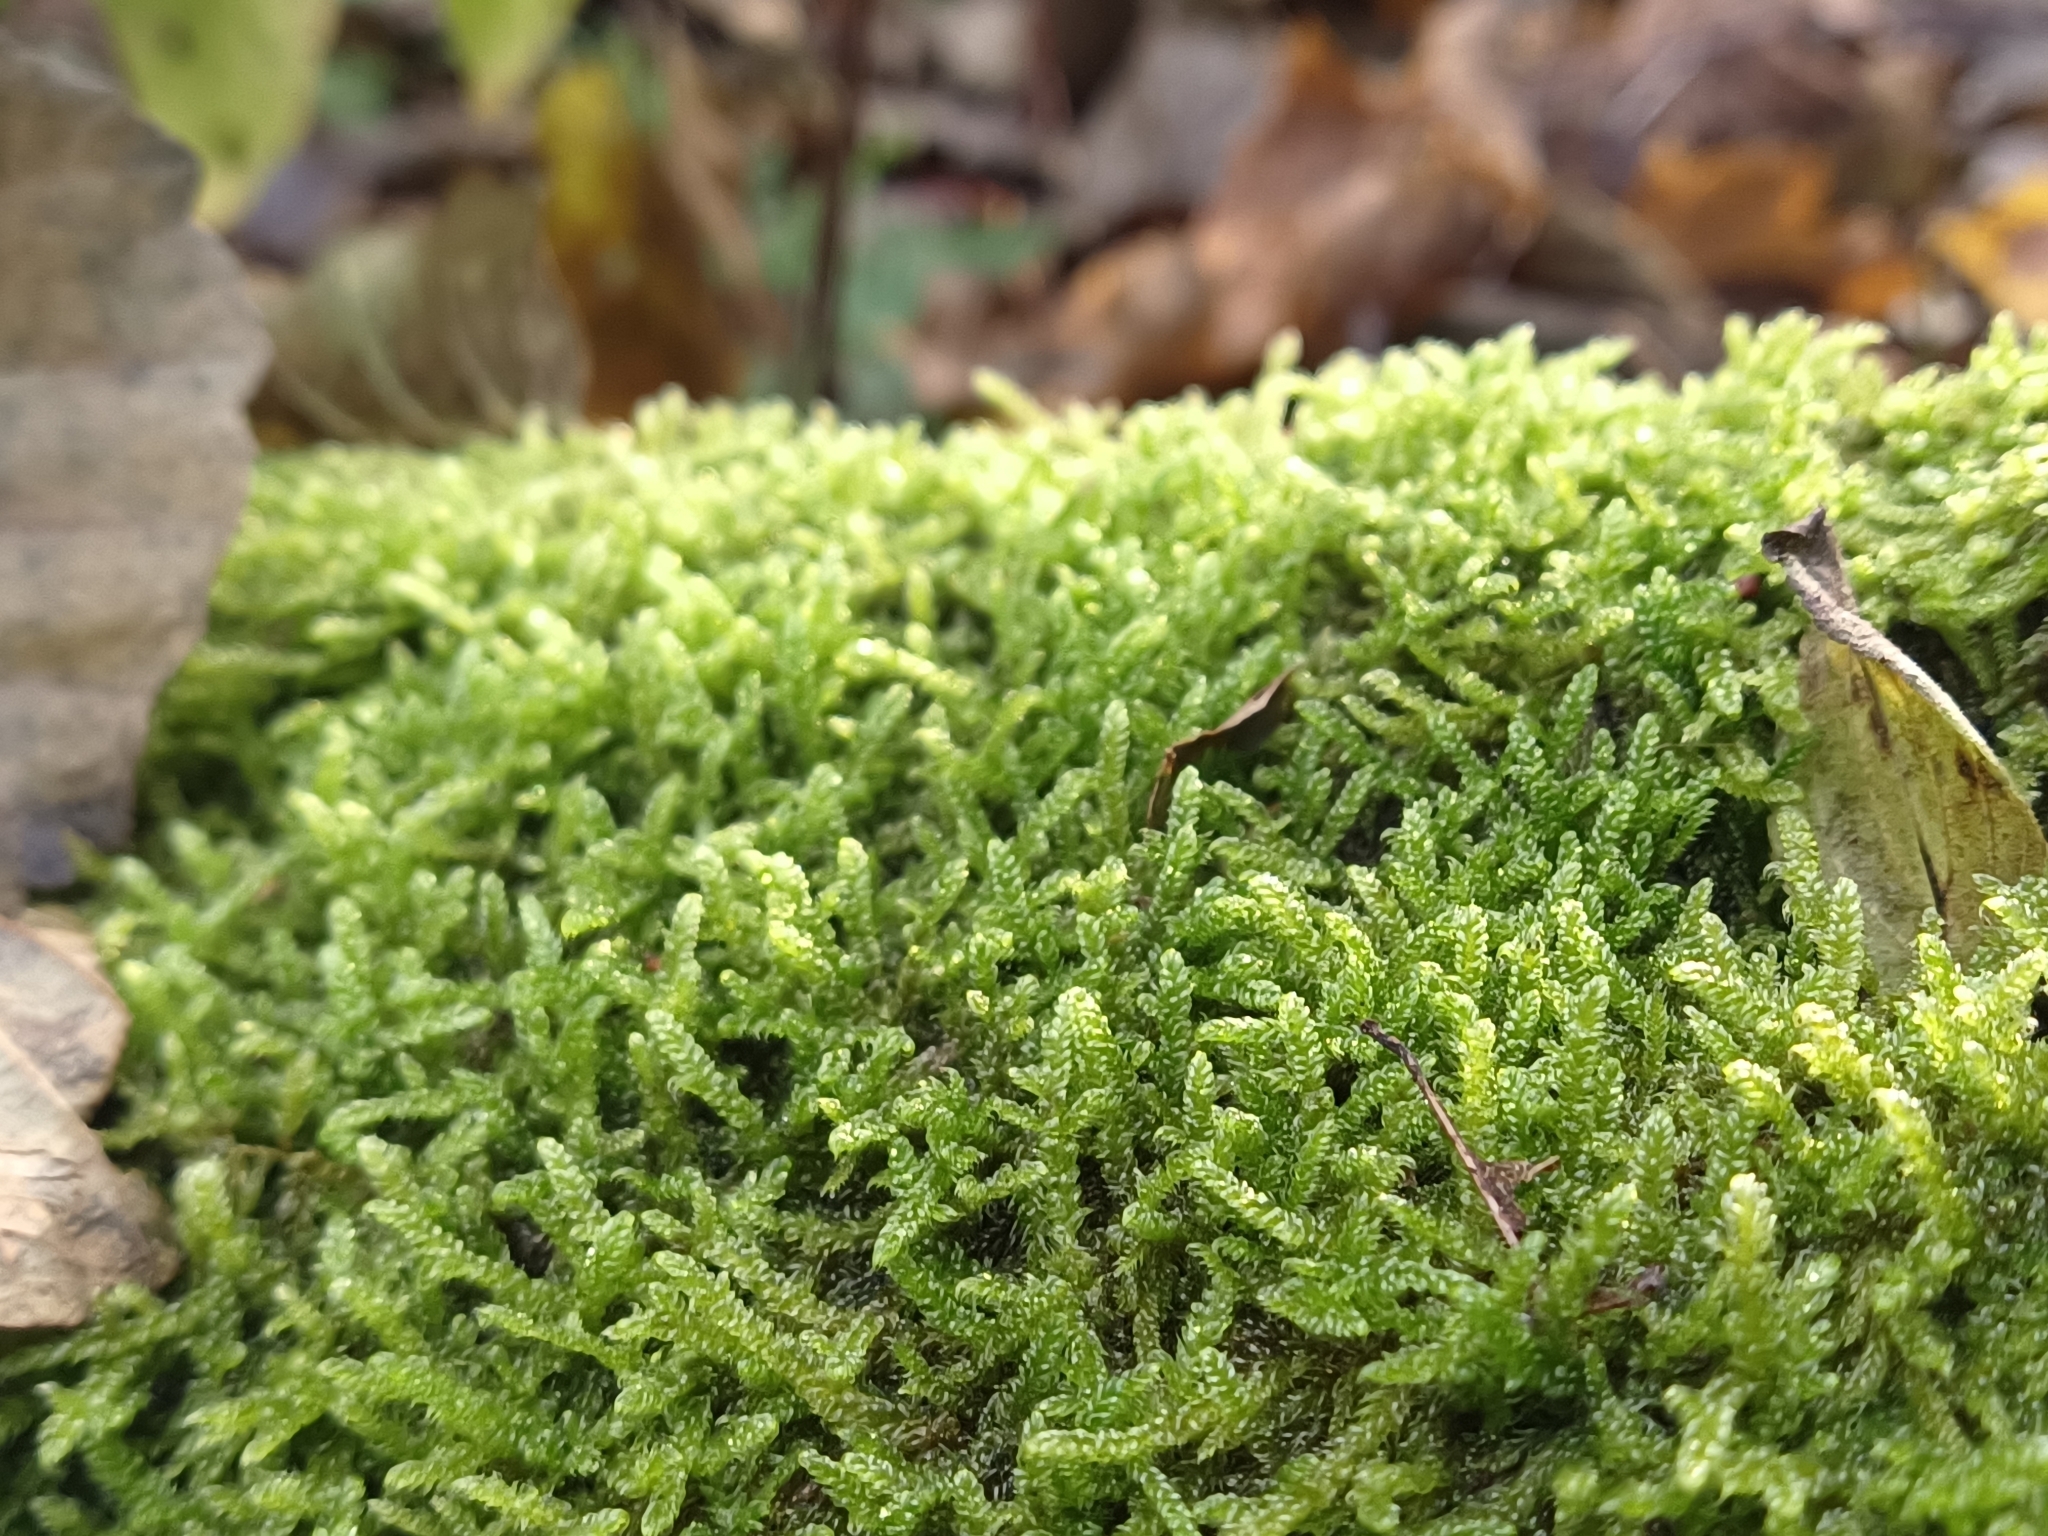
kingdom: Plantae
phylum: Bryophyta
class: Bryopsida
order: Hypnales
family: Hypnaceae
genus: Hypnum
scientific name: Hypnum cupressiforme
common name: Cypress-leaved plait-moss
